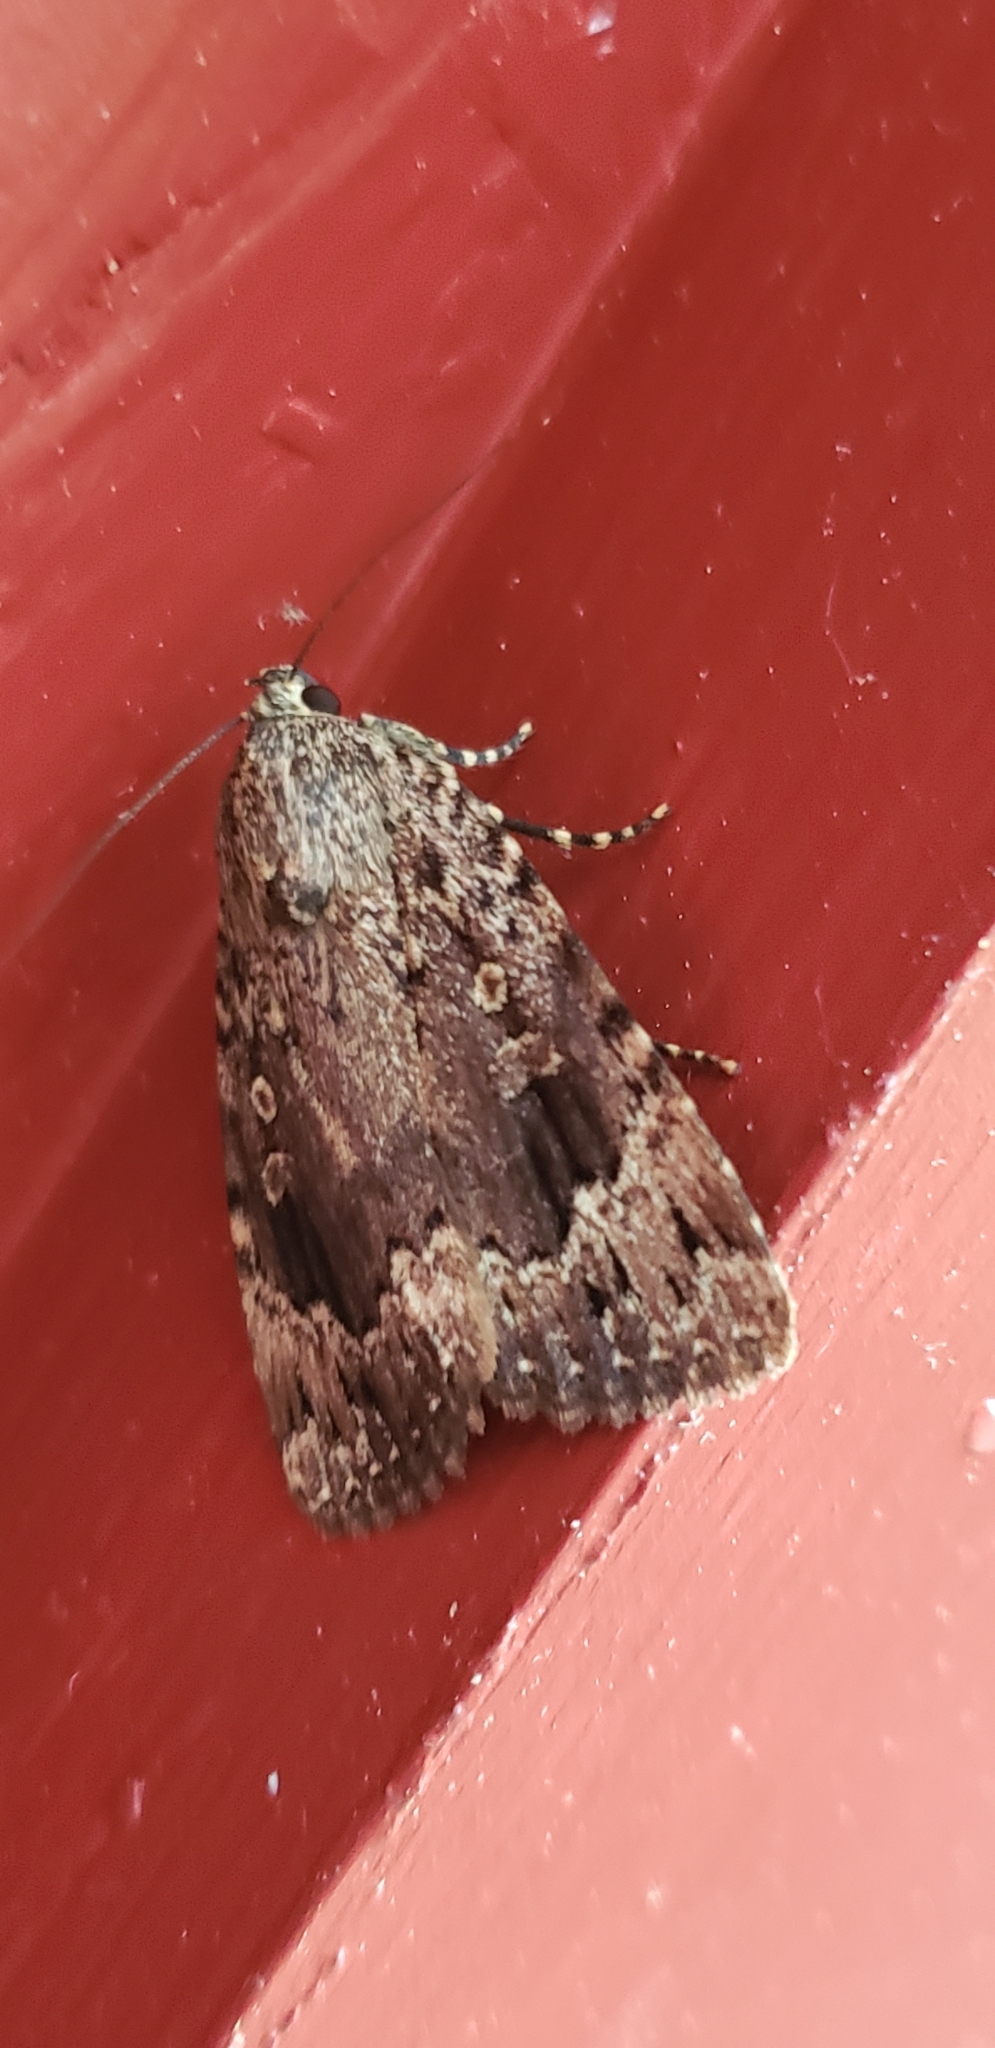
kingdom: Animalia
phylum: Arthropoda
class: Insecta
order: Lepidoptera
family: Noctuidae
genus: Amphipyra
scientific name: Amphipyra pyramidoides
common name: American copper underwing
